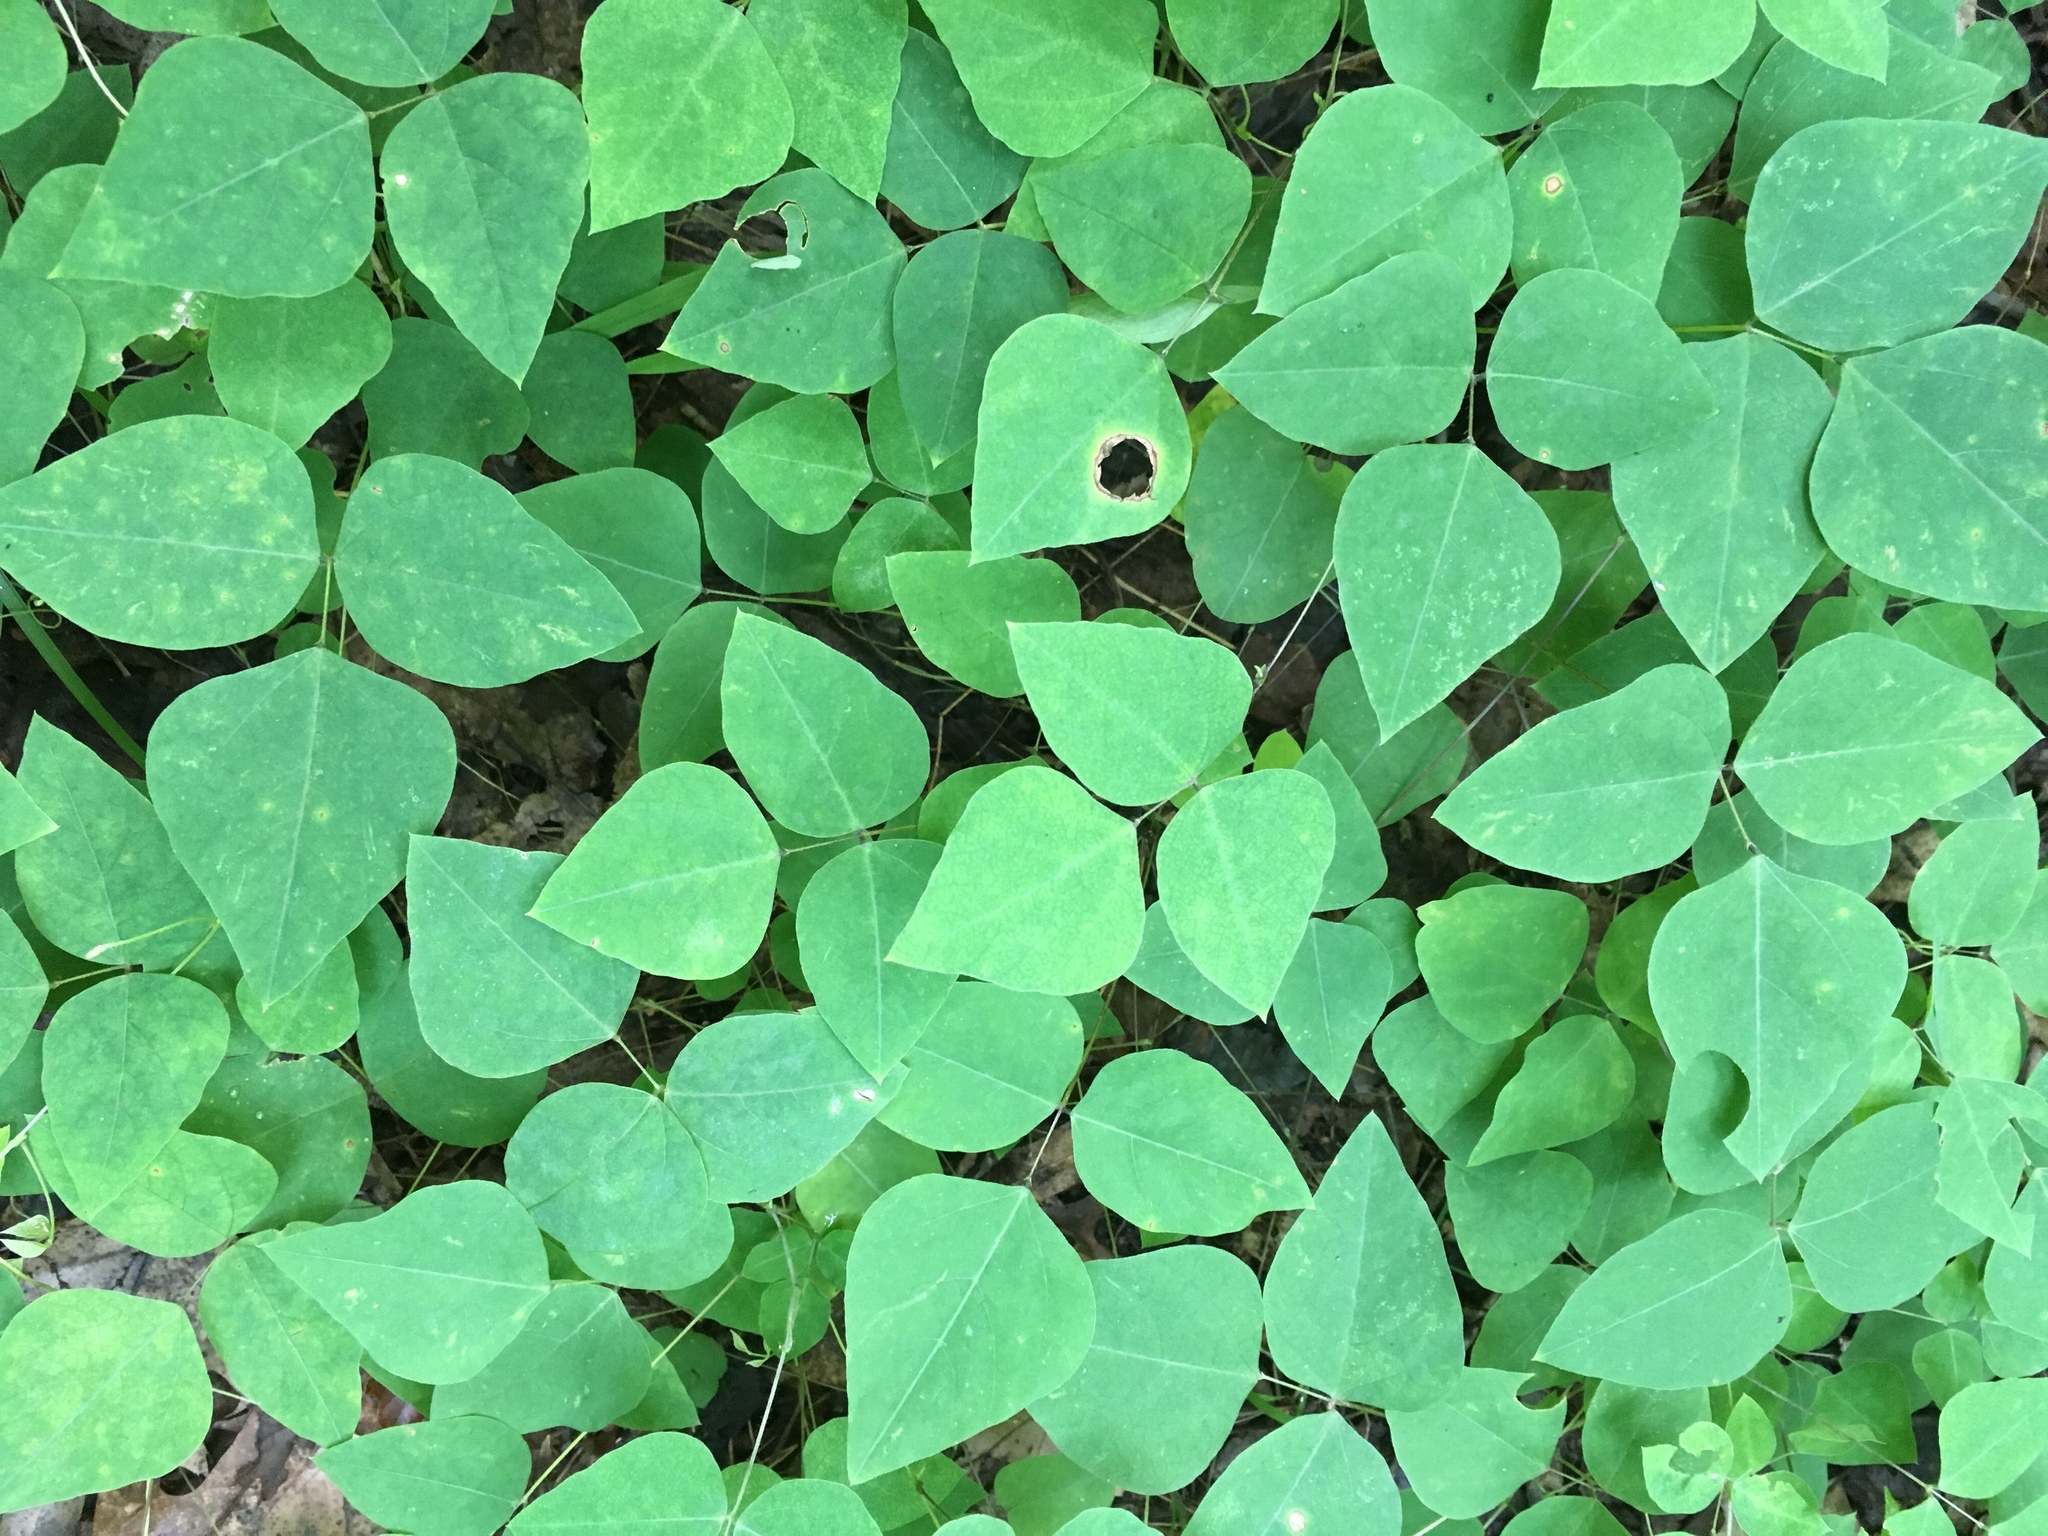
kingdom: Plantae
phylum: Tracheophyta
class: Magnoliopsida
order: Fabales
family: Fabaceae
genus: Amphicarpaea
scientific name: Amphicarpaea bracteata
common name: American hog peanut
